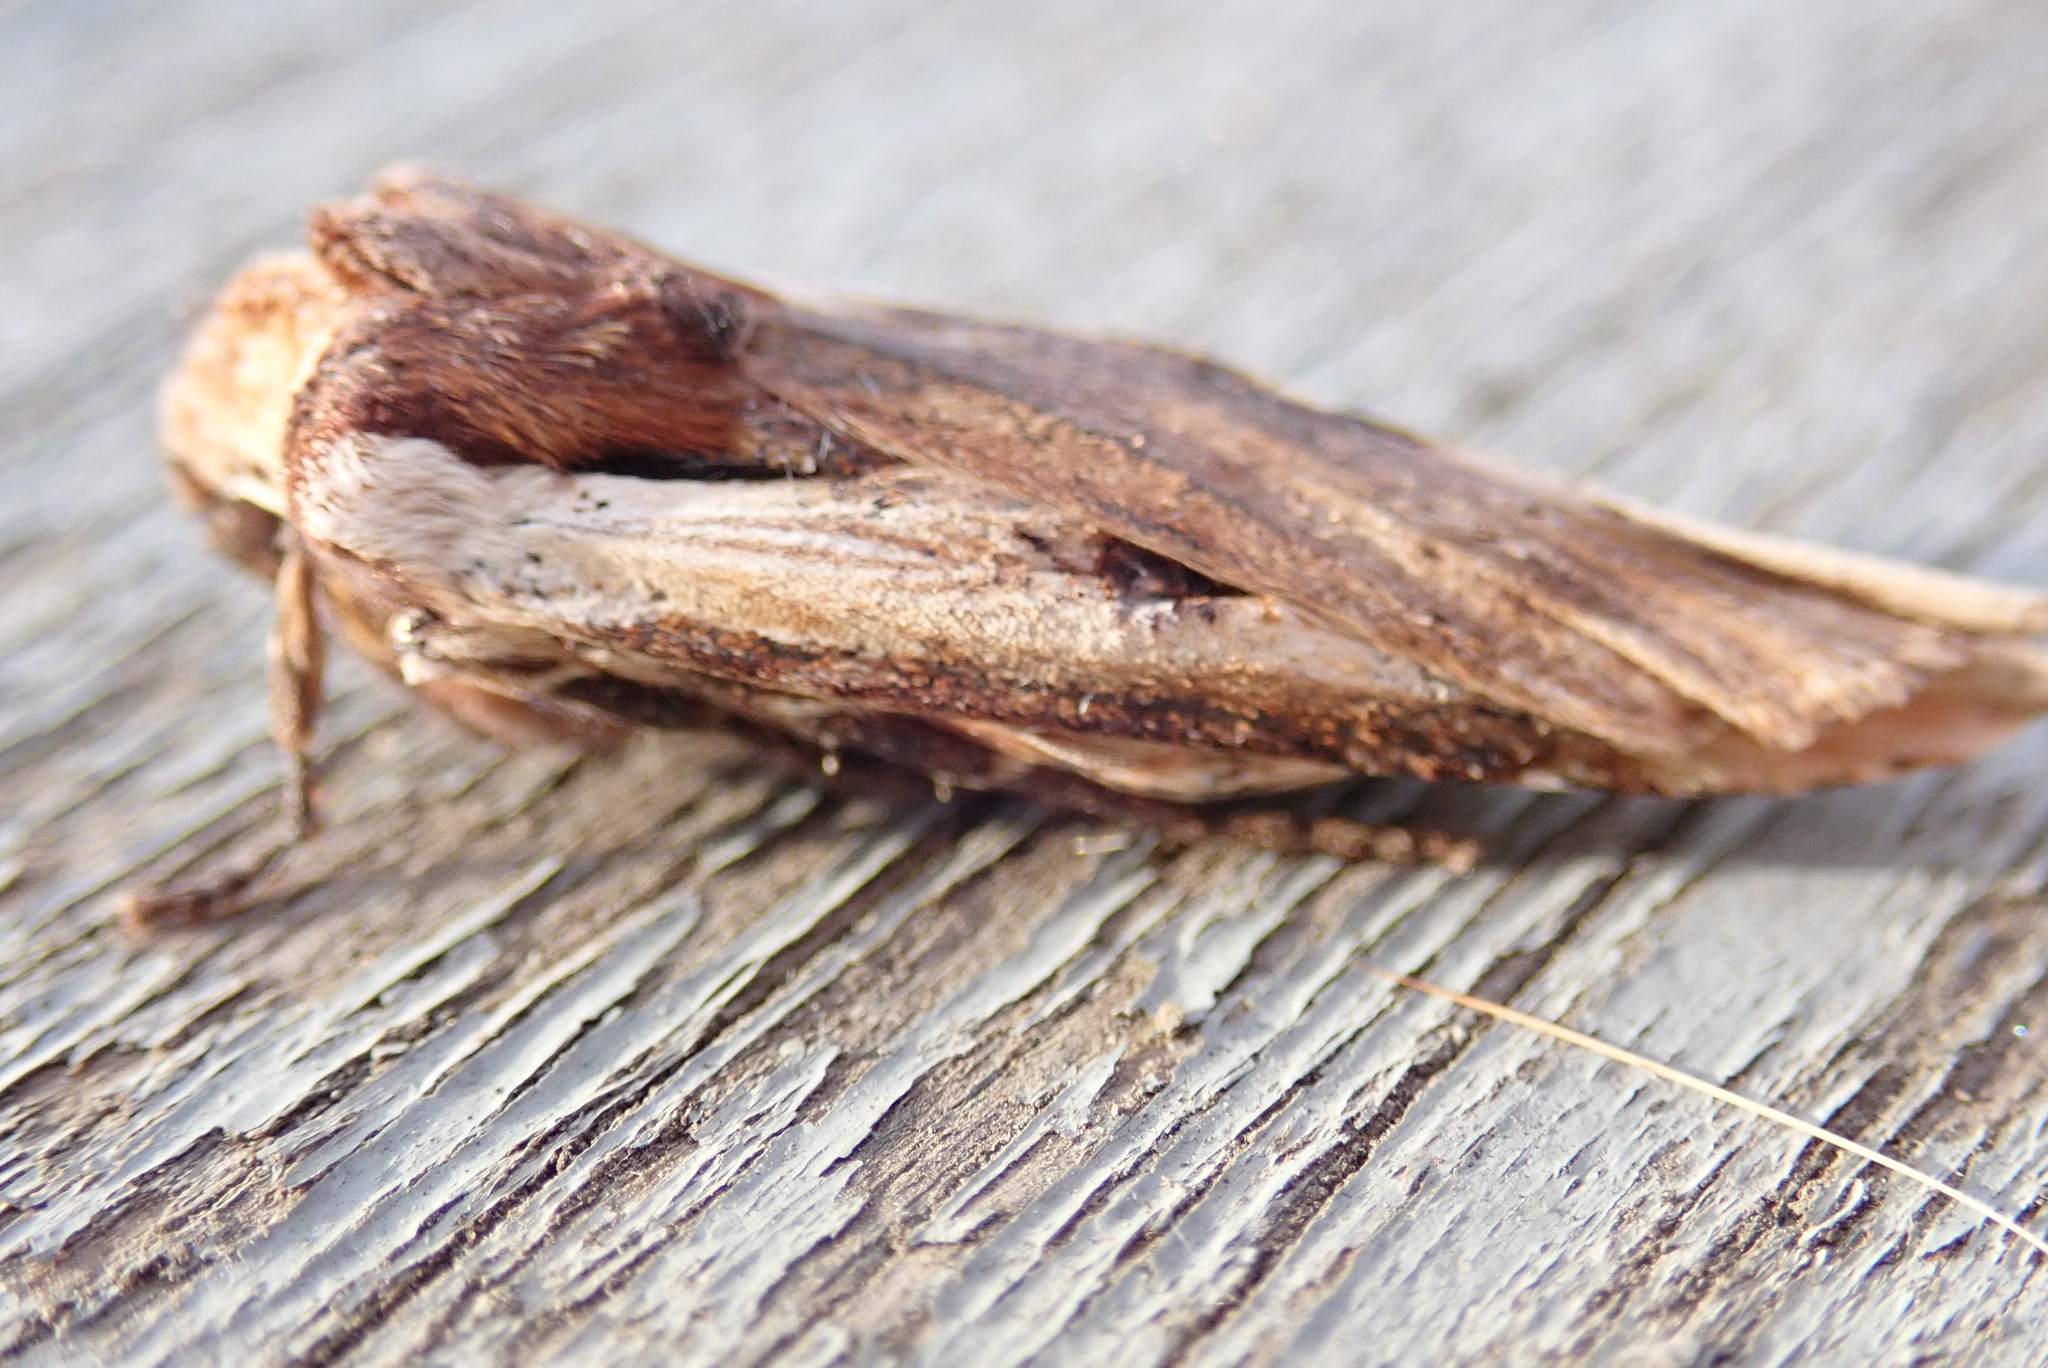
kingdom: Animalia
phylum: Arthropoda
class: Insecta
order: Lepidoptera
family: Noctuidae
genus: Xylena
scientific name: Xylena curvimacula
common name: Dot-and-dash swordgrass moth
